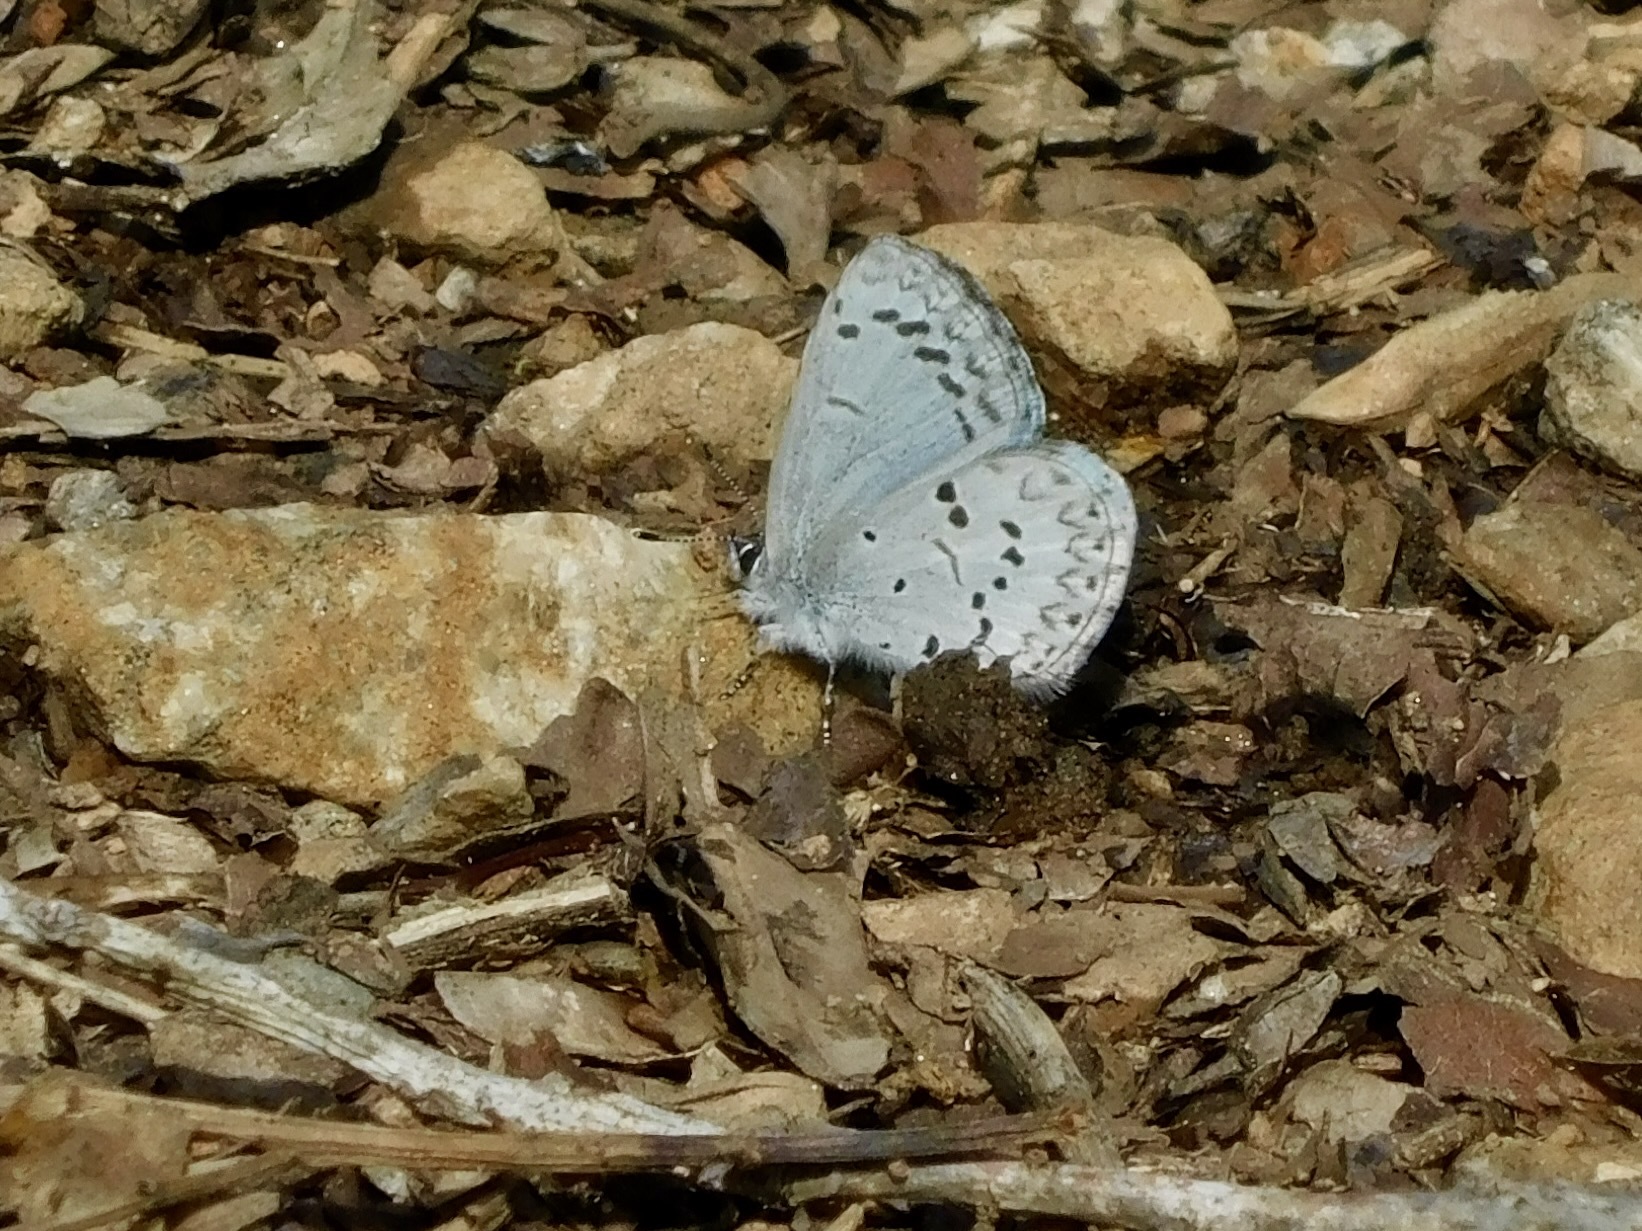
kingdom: Animalia
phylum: Arthropoda
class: Insecta
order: Lepidoptera
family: Lycaenidae
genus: Cyaniris
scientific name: Cyaniris neglecta
